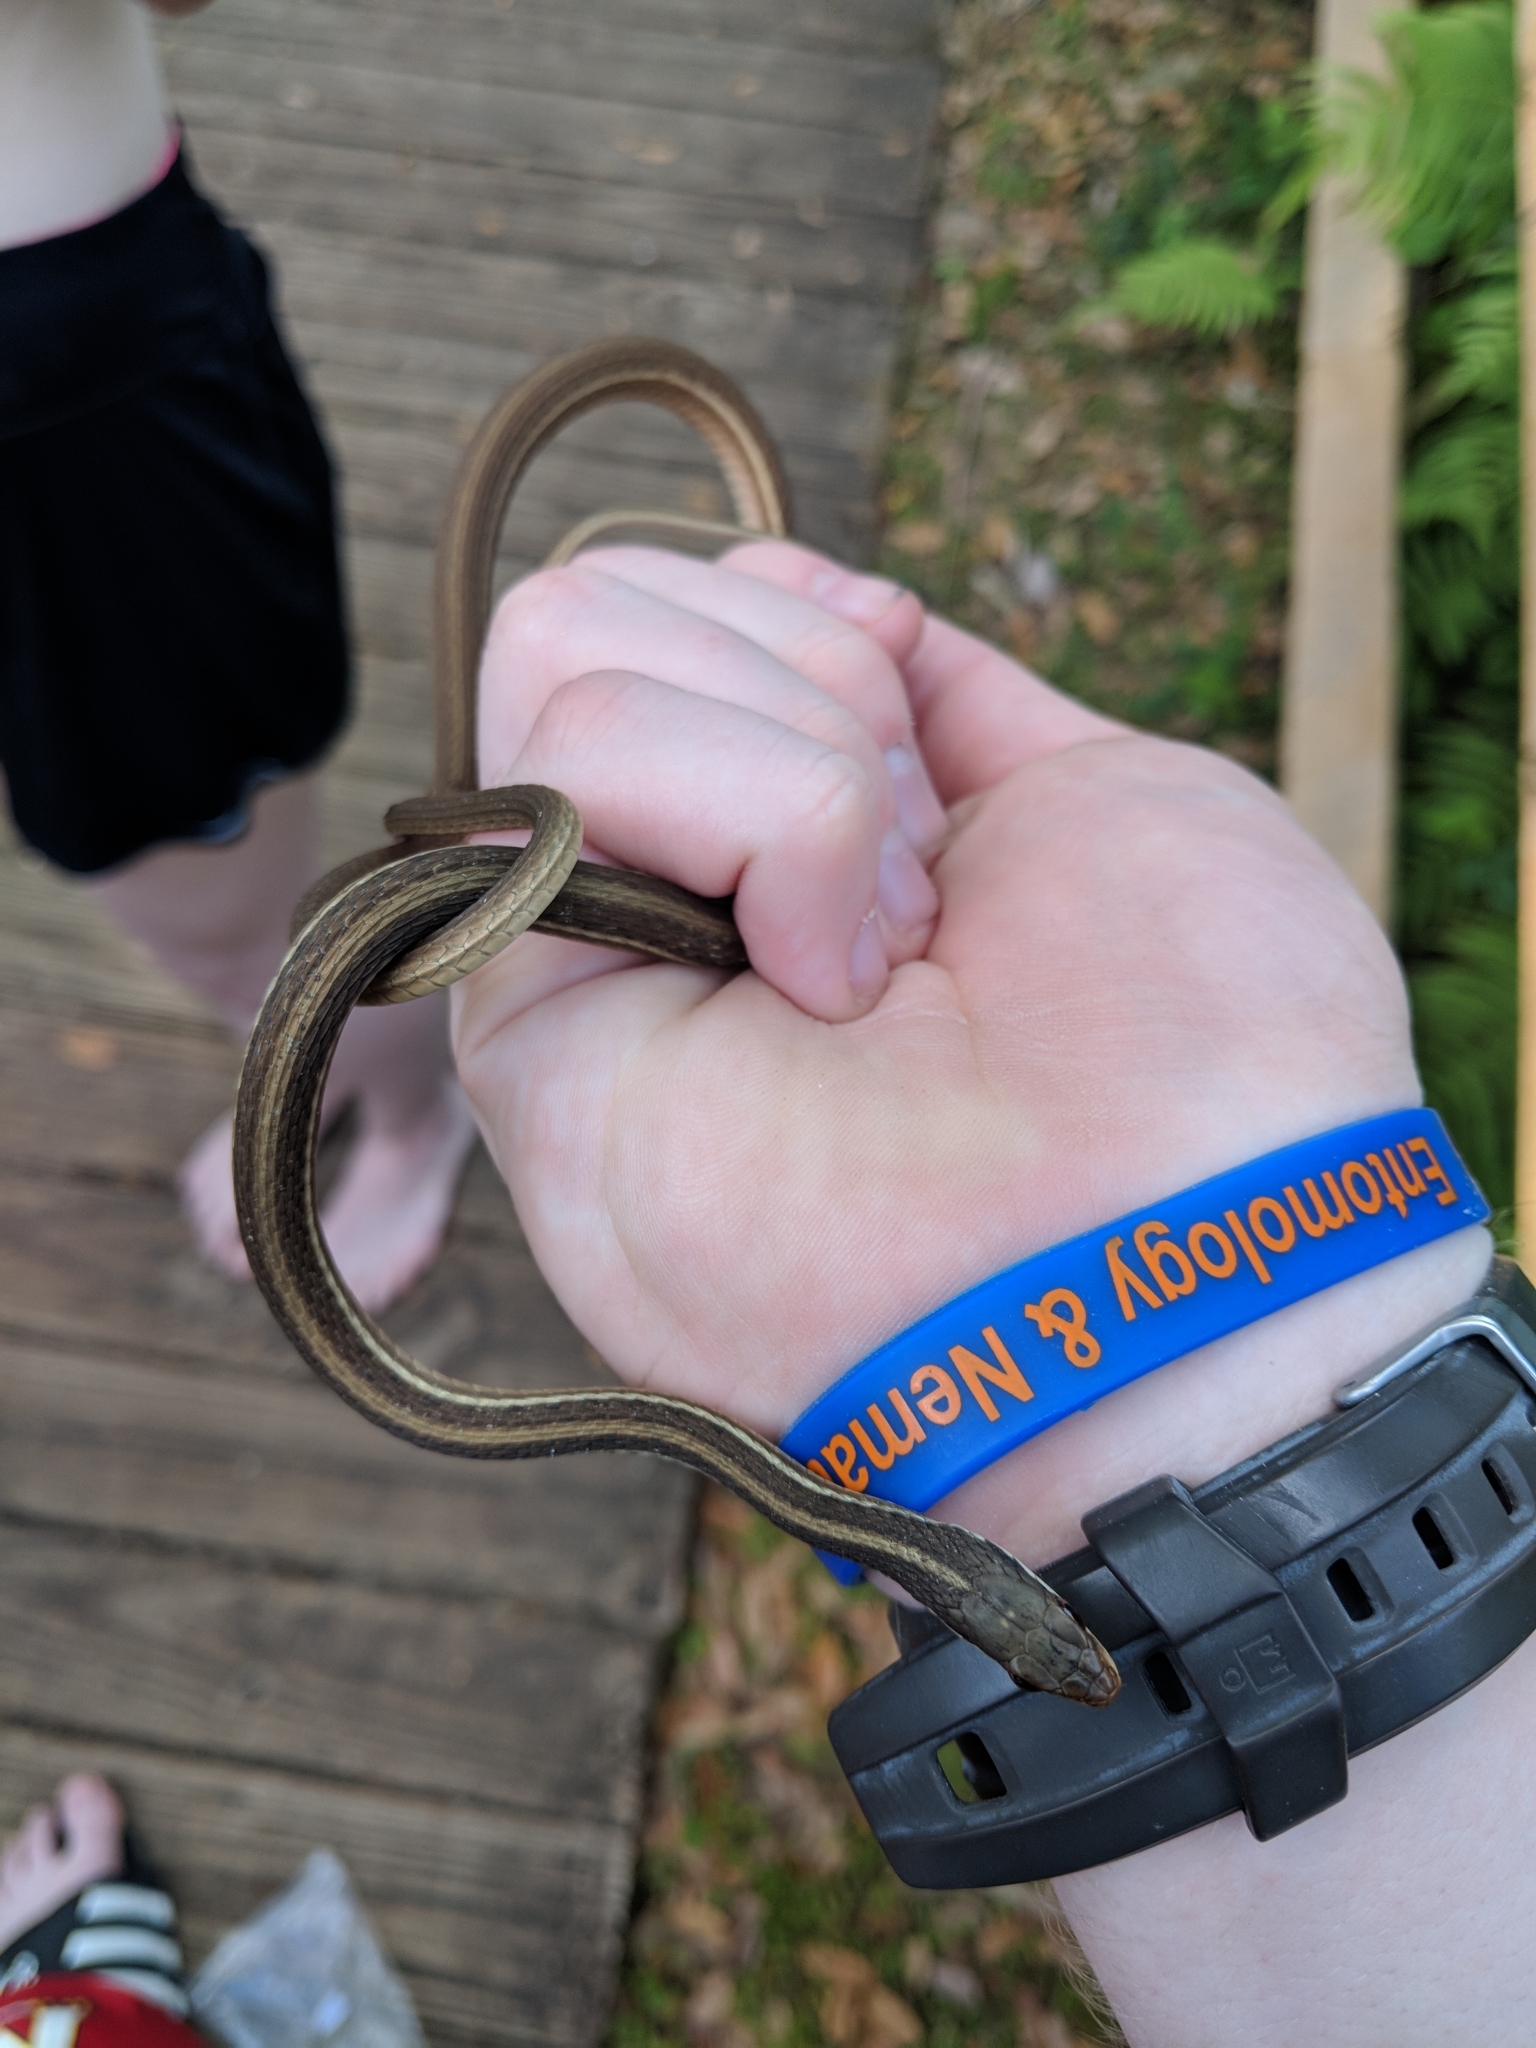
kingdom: Animalia
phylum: Chordata
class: Squamata
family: Colubridae
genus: Thamnophis
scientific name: Thamnophis saurita
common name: Eastern ribbonsnake
